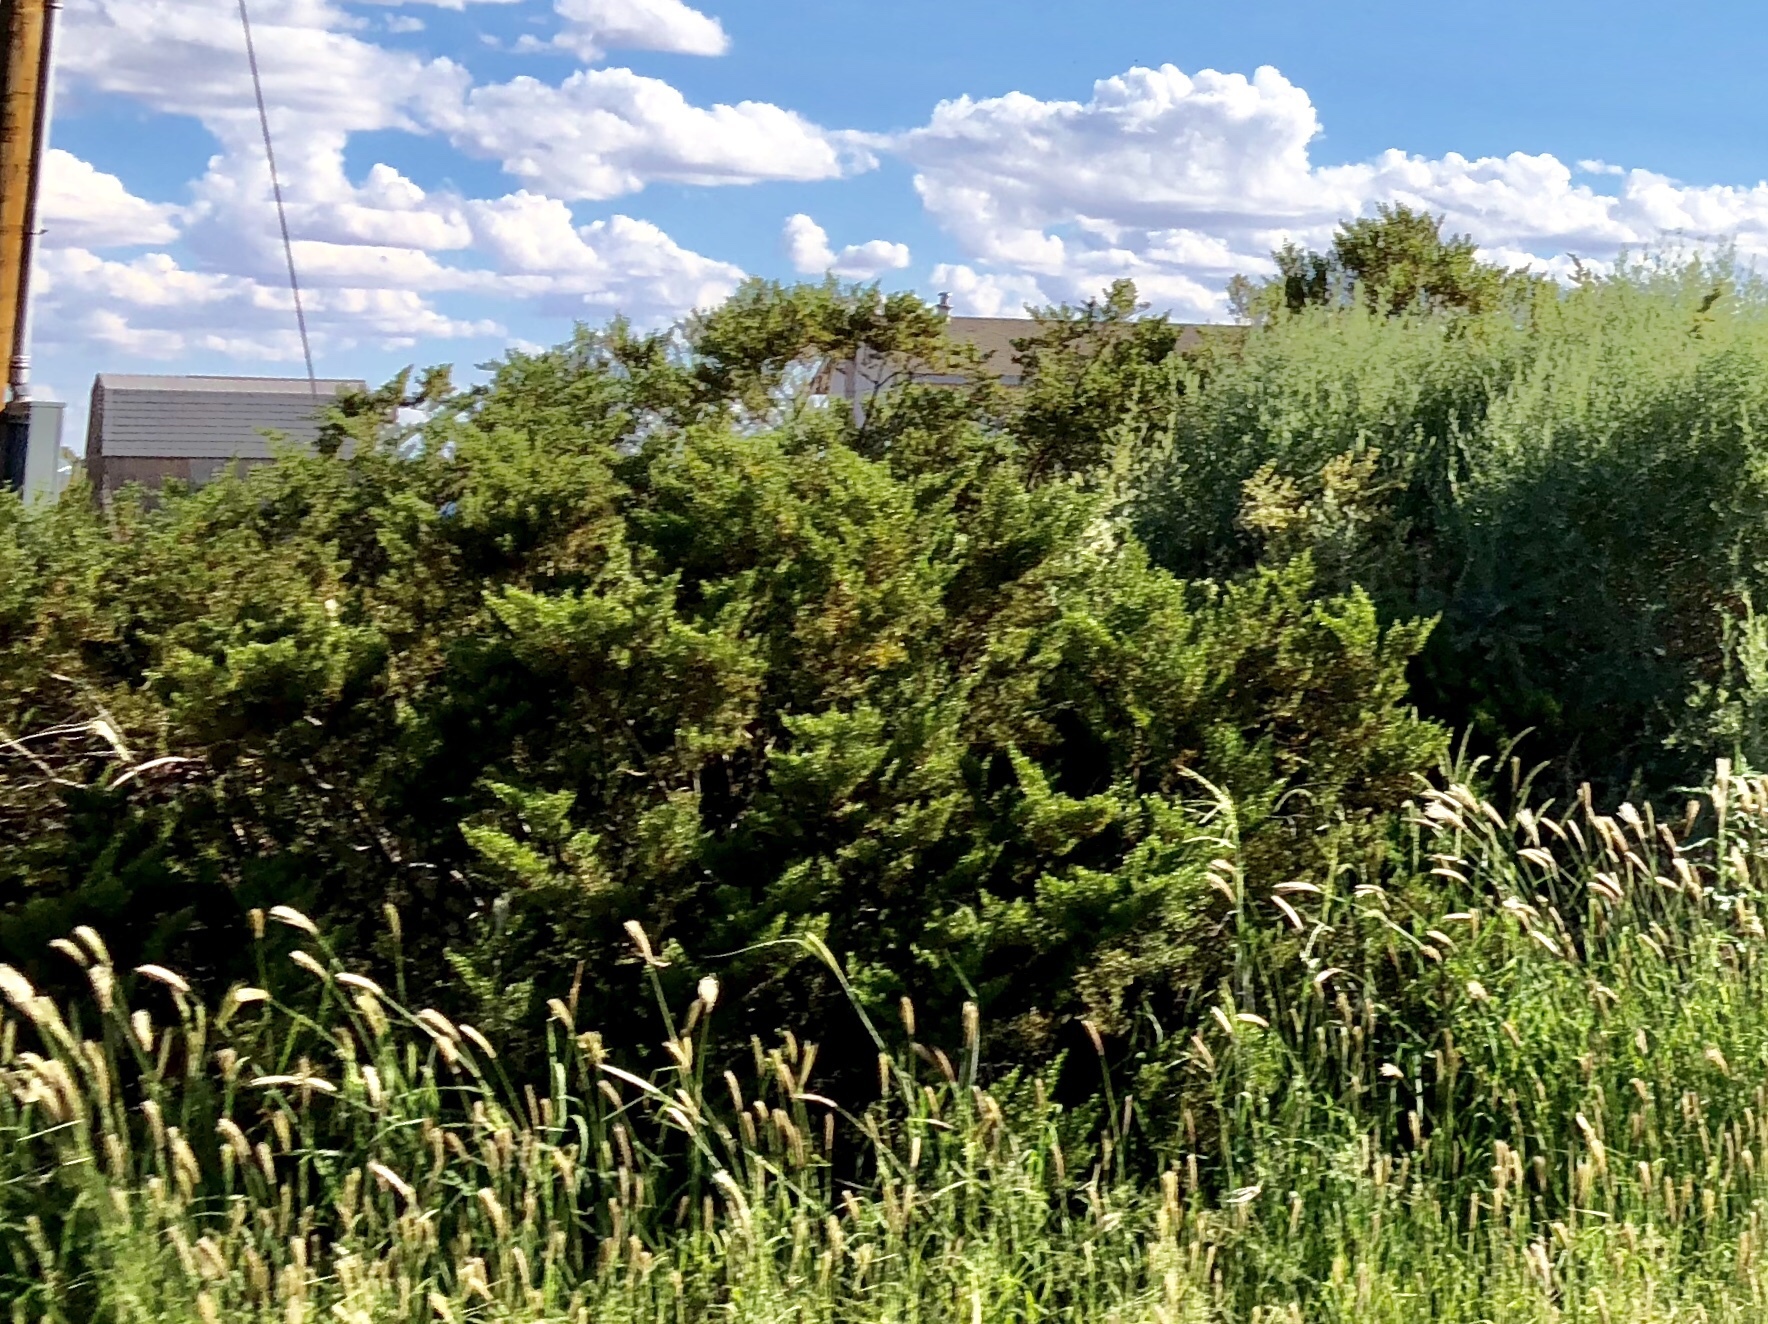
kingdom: Plantae
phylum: Tracheophyta
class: Magnoliopsida
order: Zygophyllales
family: Zygophyllaceae
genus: Larrea
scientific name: Larrea tridentata
